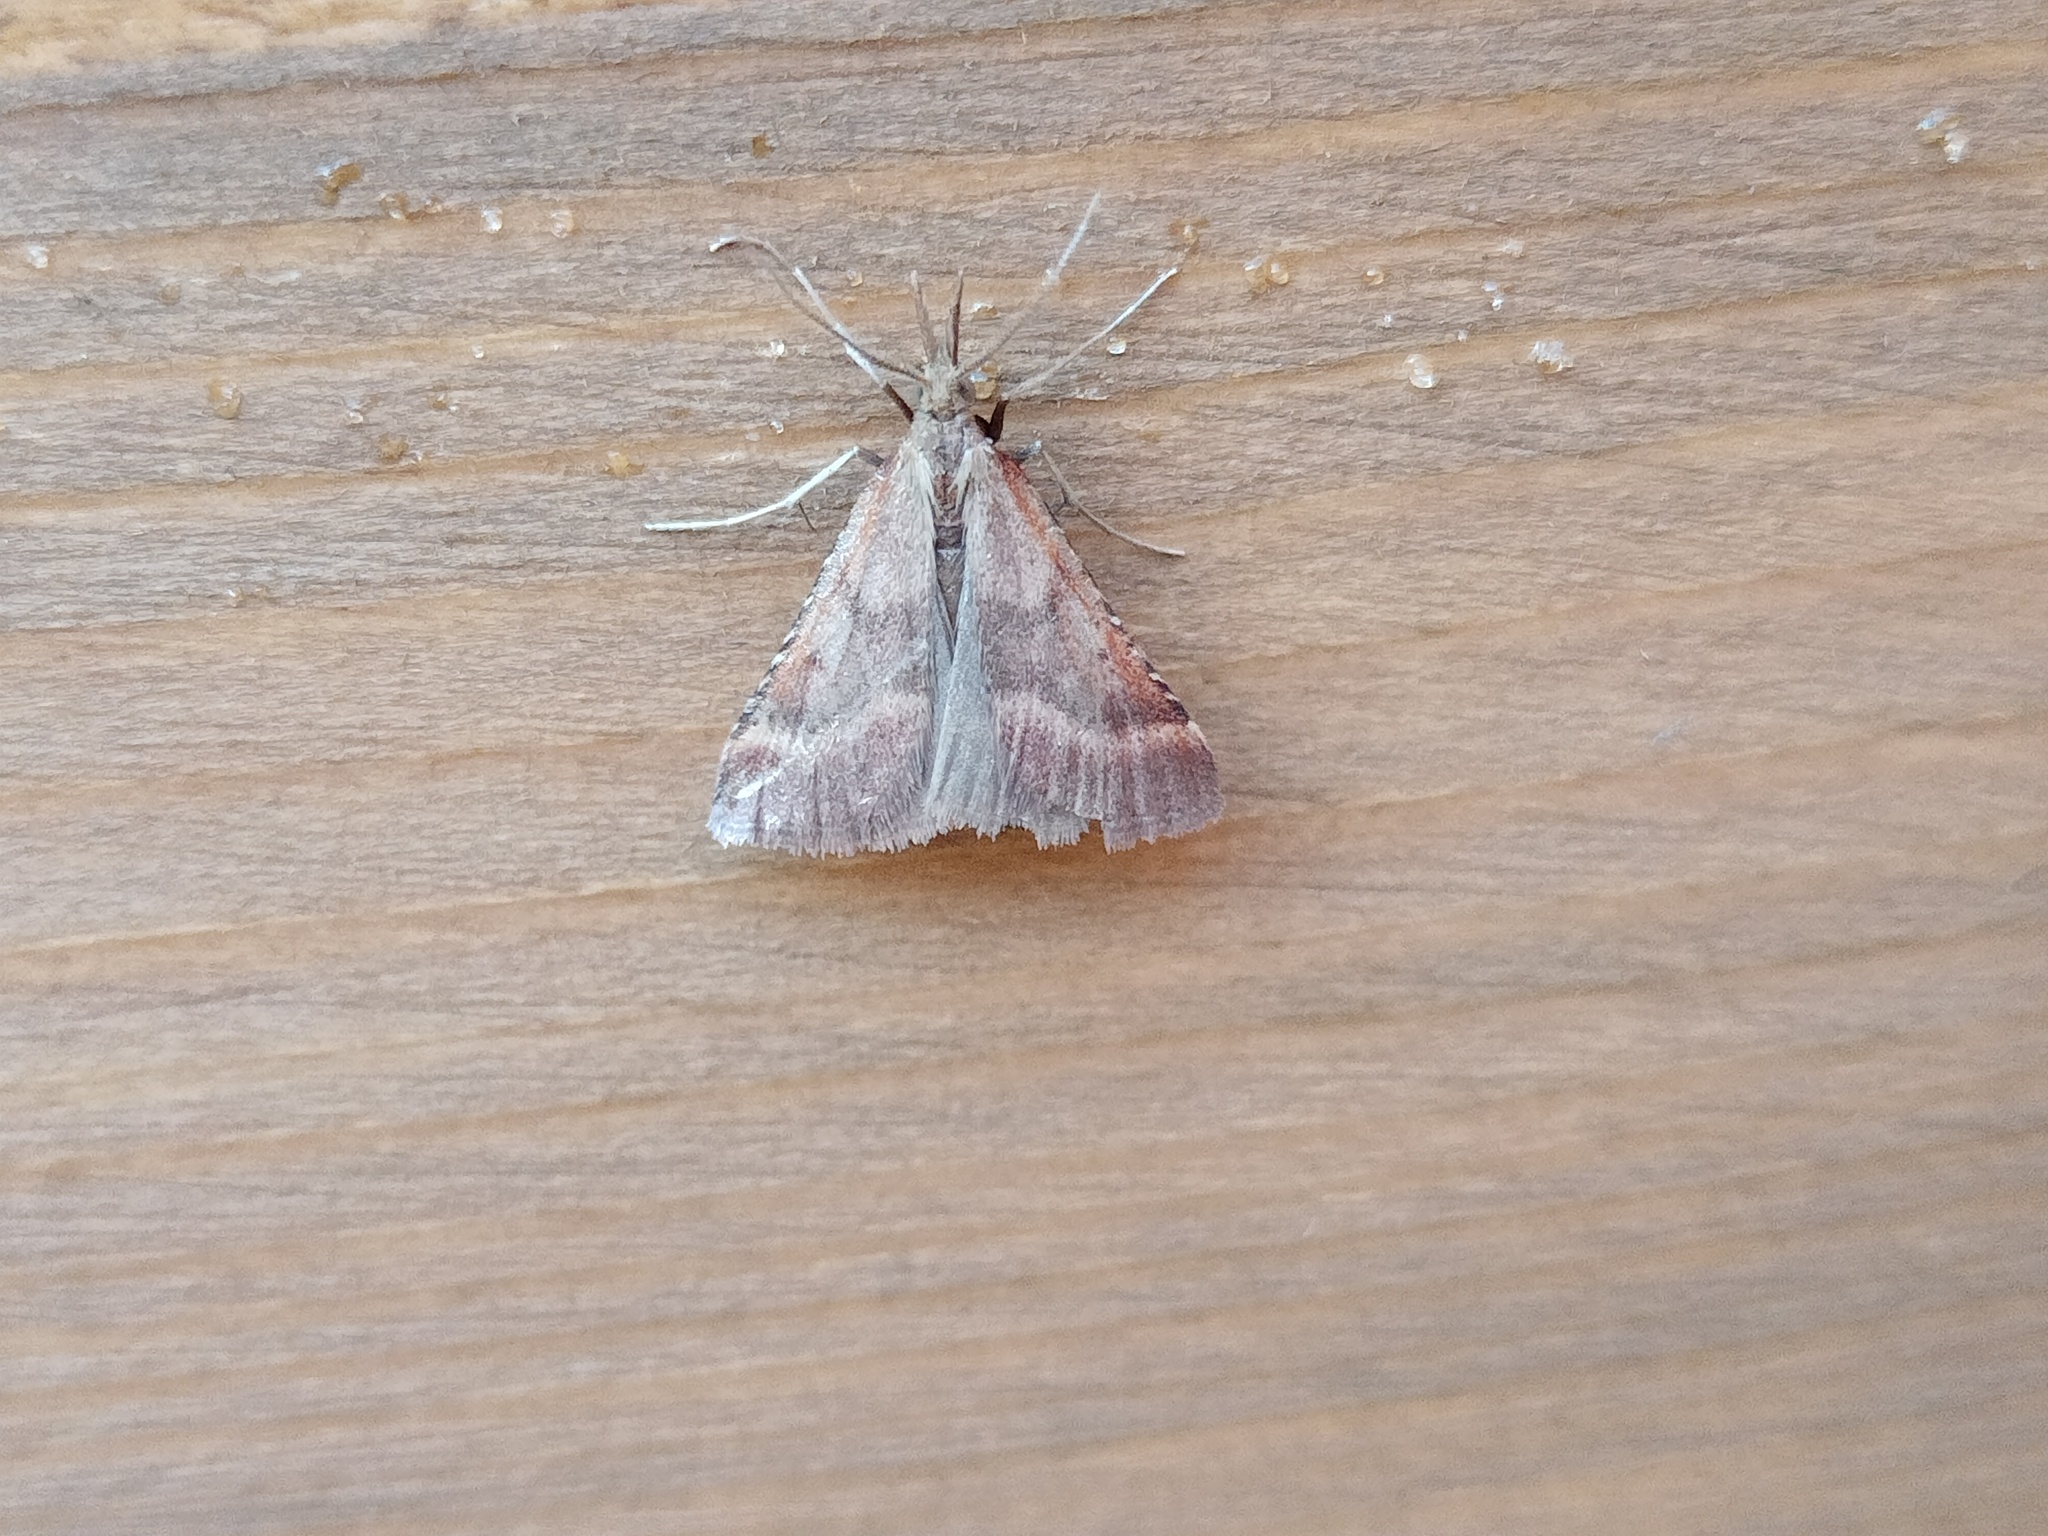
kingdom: Animalia
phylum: Arthropoda
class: Insecta
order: Lepidoptera
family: Pyralidae
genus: Synaphe
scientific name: Synaphe punctalis
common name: Long-legged tabby
